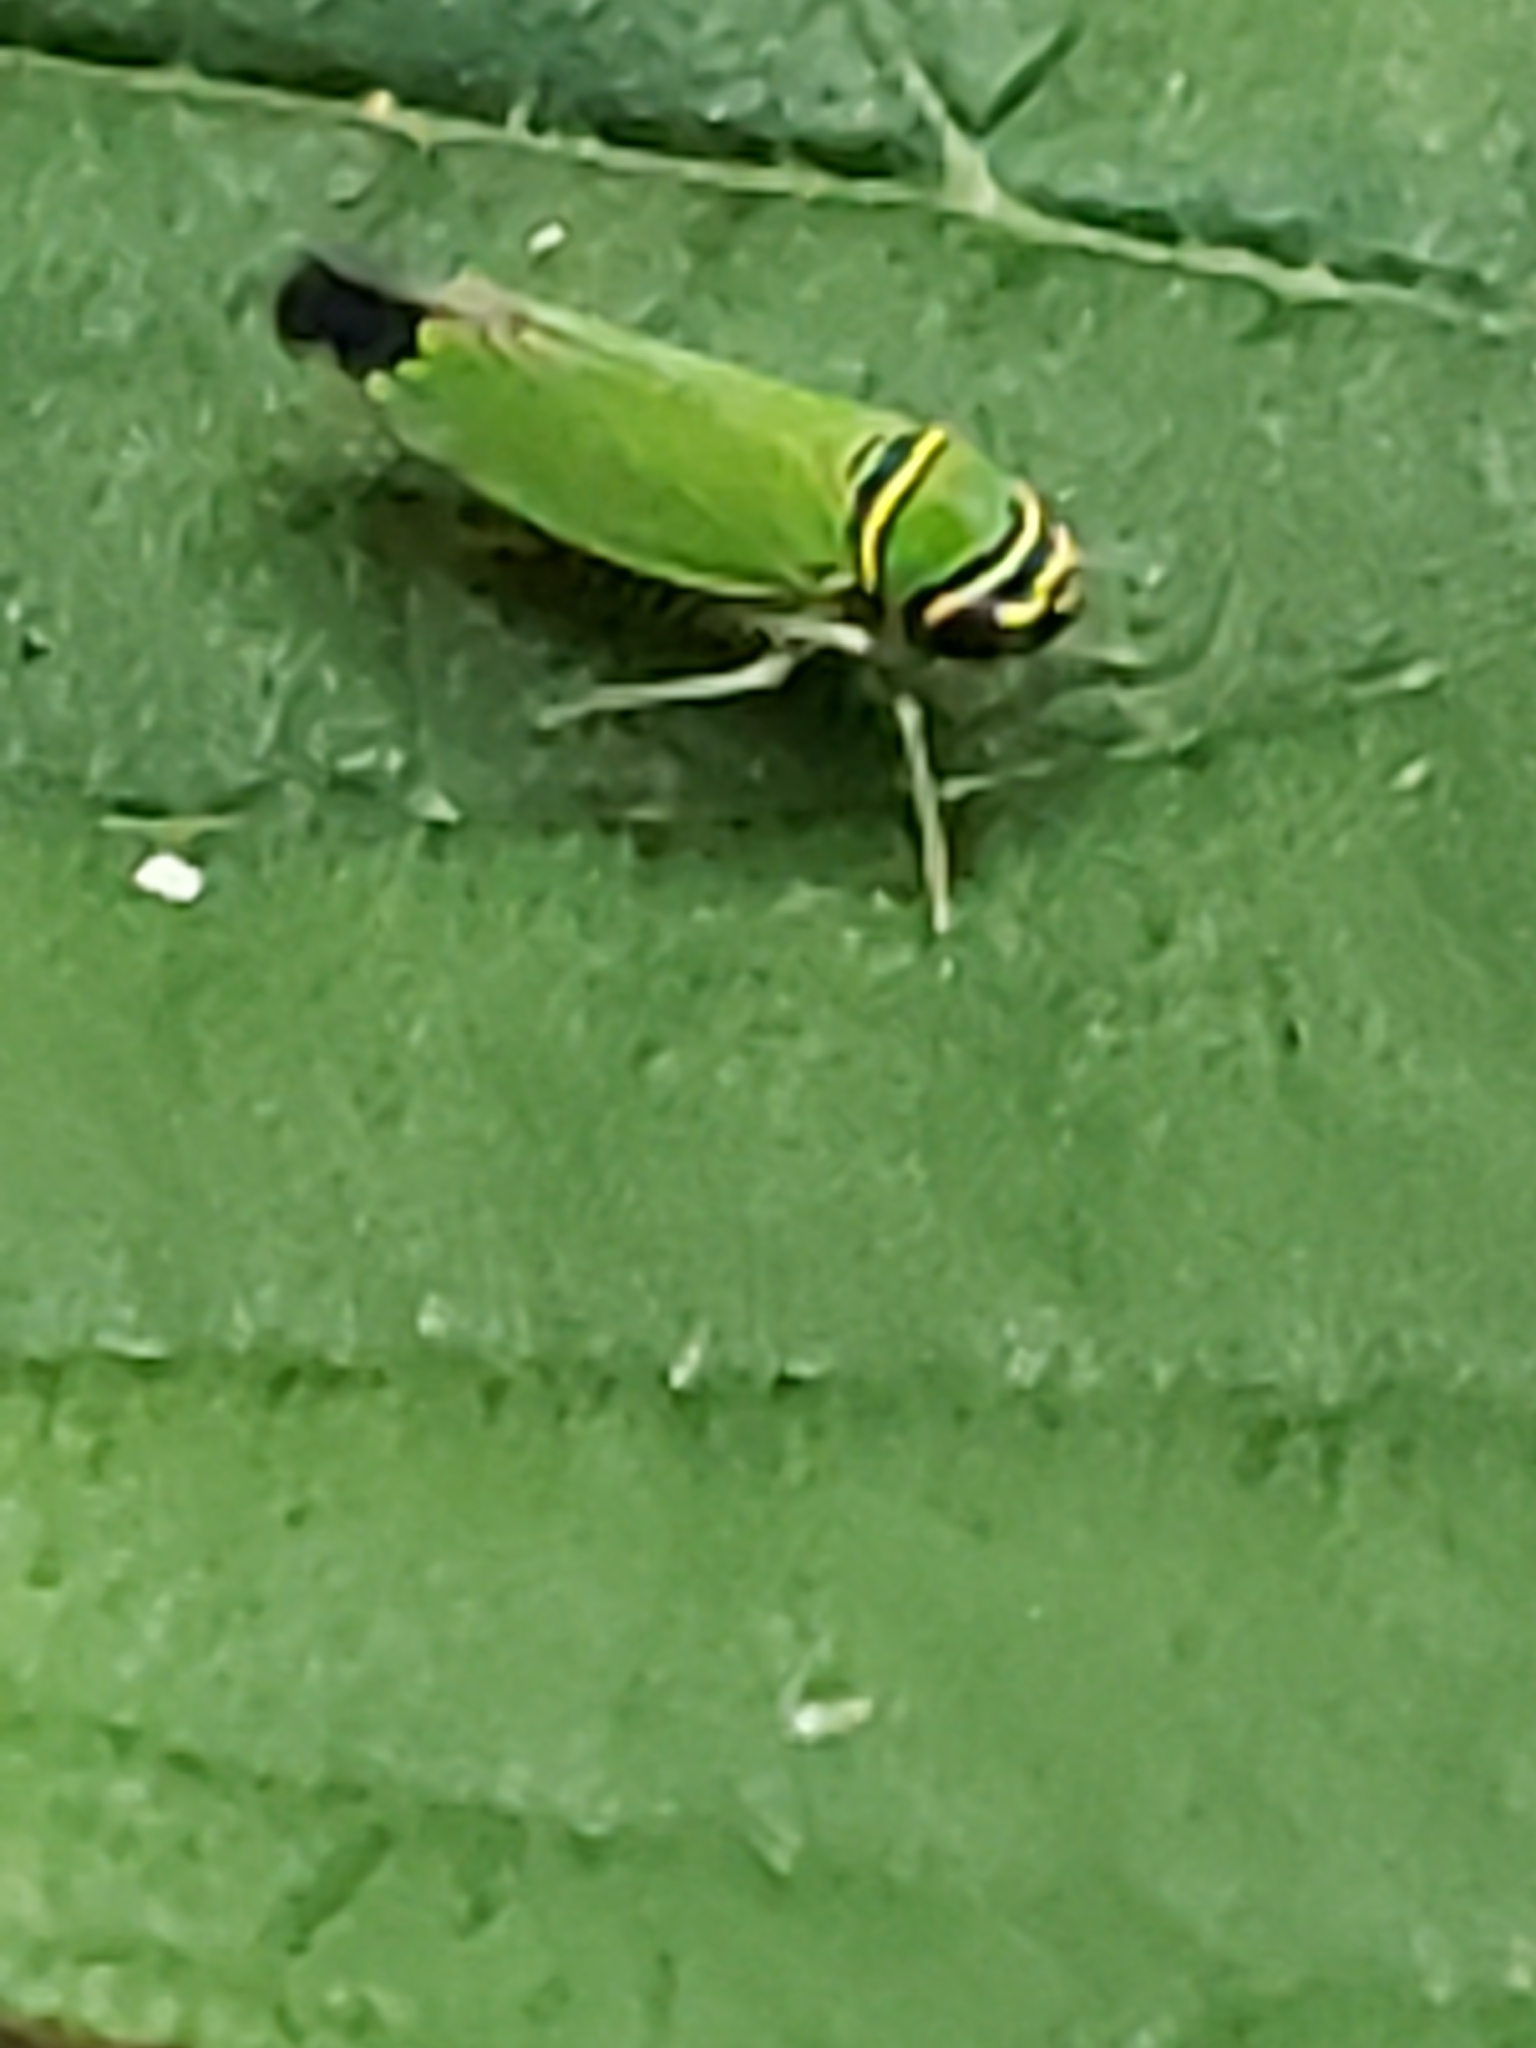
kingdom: Animalia
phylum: Arthropoda
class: Insecta
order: Hemiptera
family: Cicadellidae
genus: Tylozygus
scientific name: Tylozygus geometricus
